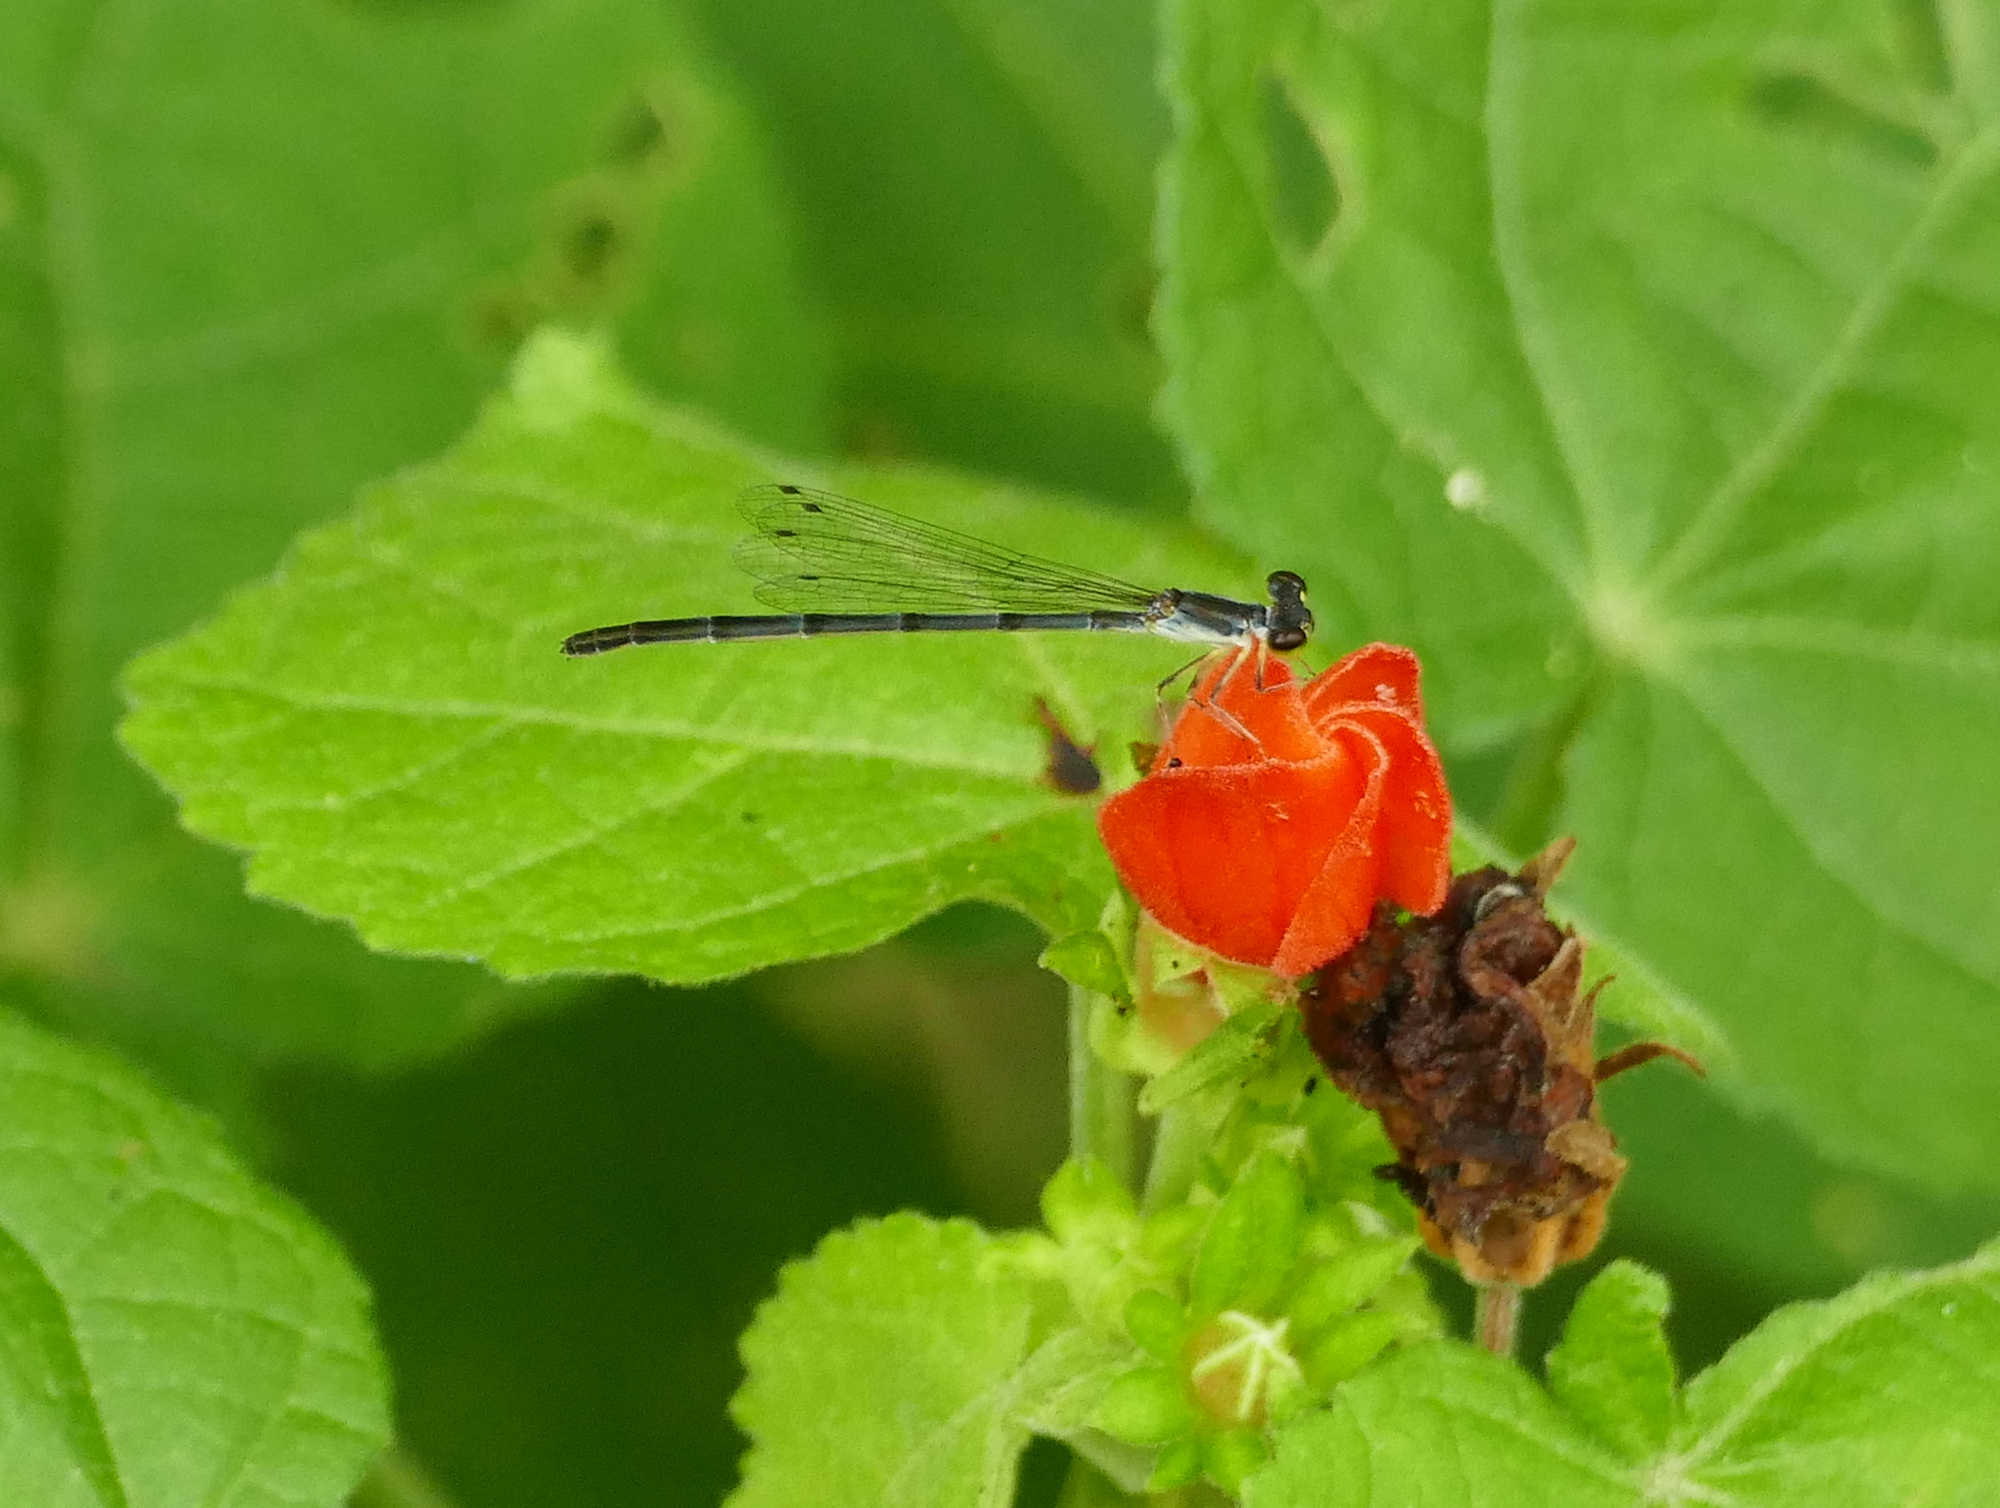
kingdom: Animalia
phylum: Arthropoda
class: Insecta
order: Odonata
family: Coenagrionidae
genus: Ischnura
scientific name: Ischnura posita
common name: Fragile forktail
